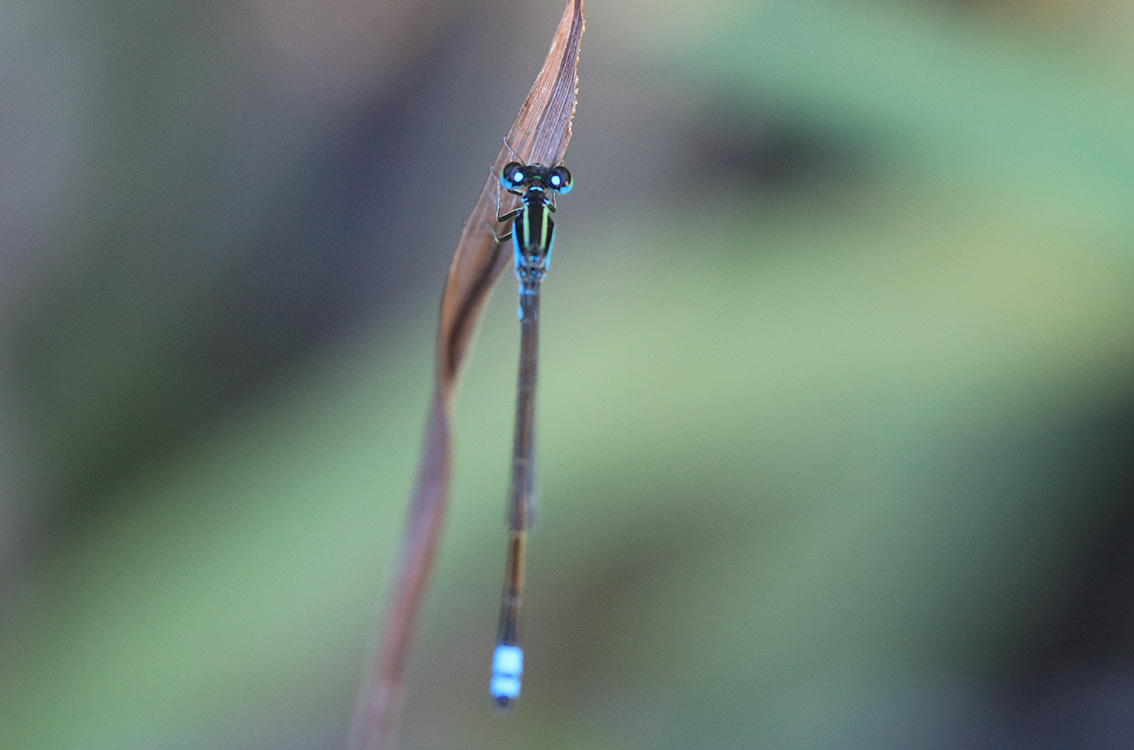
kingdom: Animalia
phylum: Arthropoda
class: Insecta
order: Odonata
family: Coenagrionidae
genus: Ischnura
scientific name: Ischnura fluviatilis
